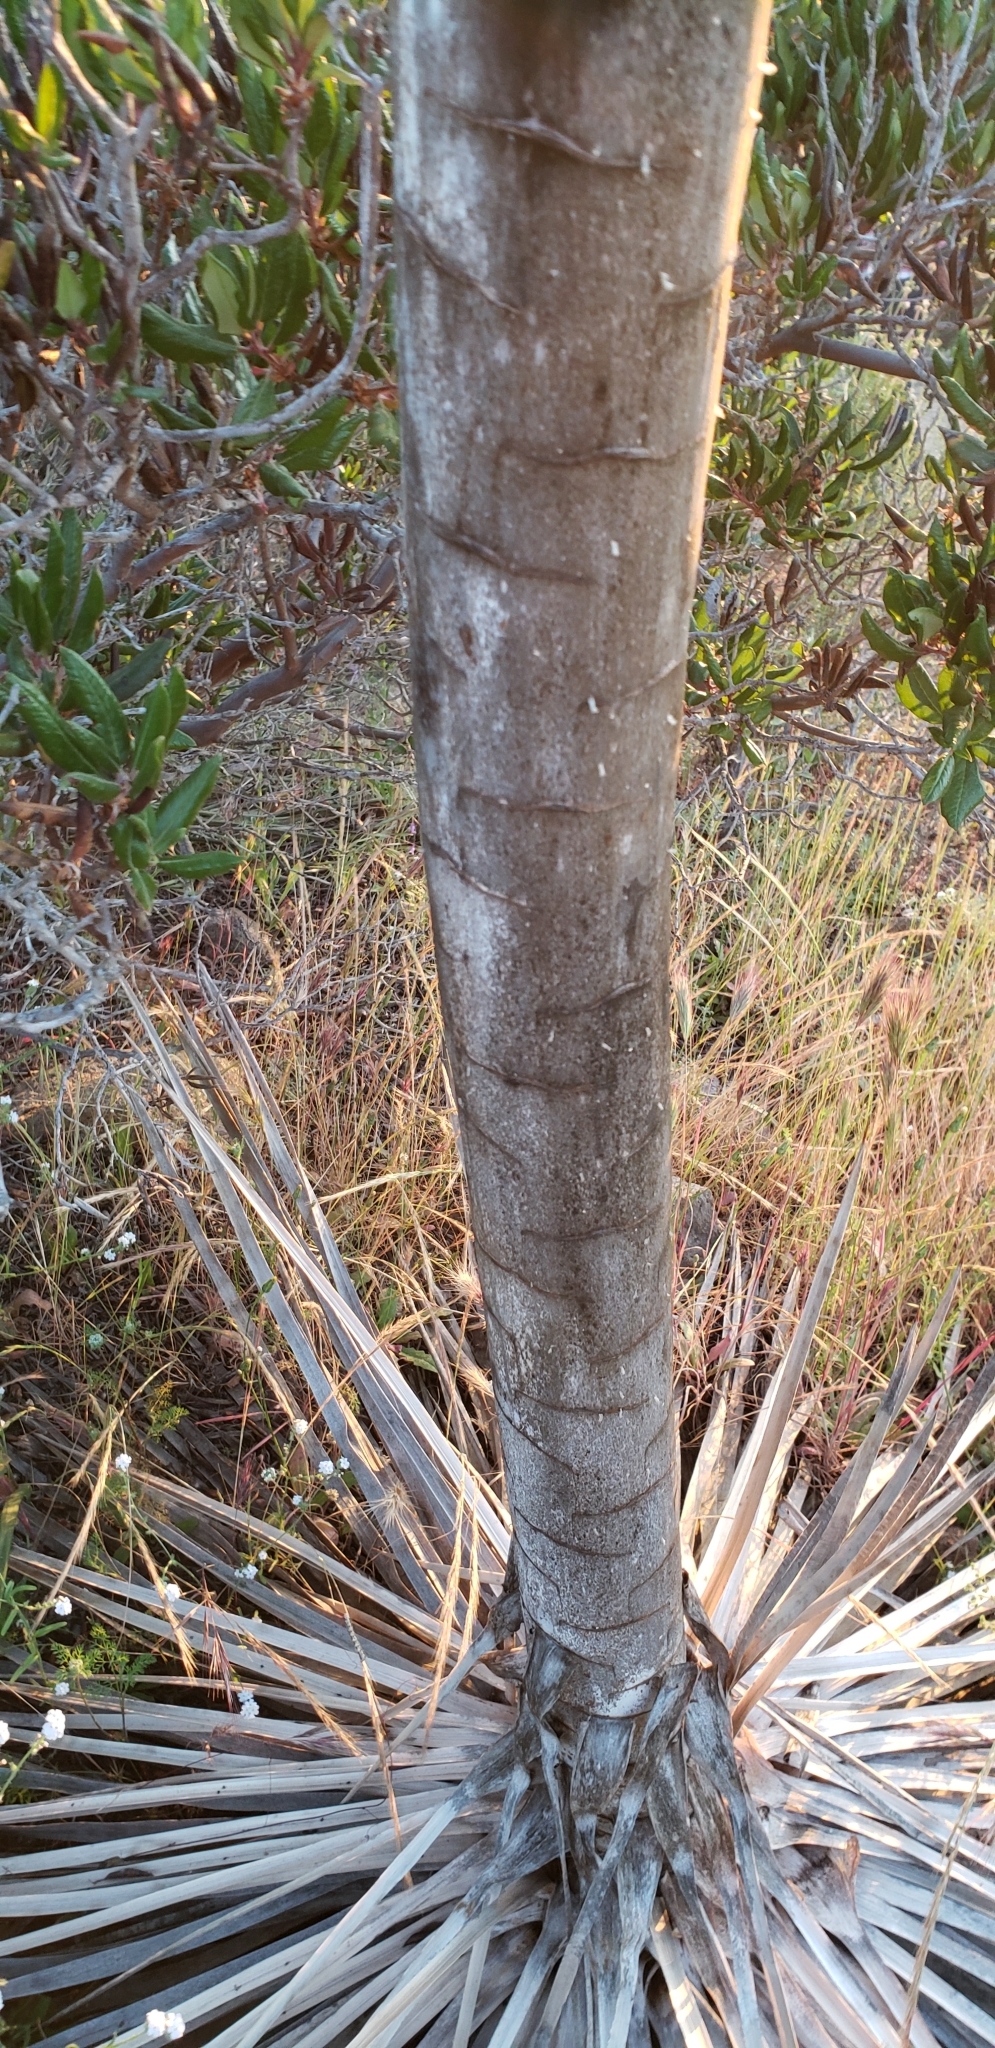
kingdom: Plantae
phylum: Tracheophyta
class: Liliopsida
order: Asparagales
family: Asparagaceae
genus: Hesperoyucca
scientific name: Hesperoyucca whipplei
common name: Our lord's-candle
